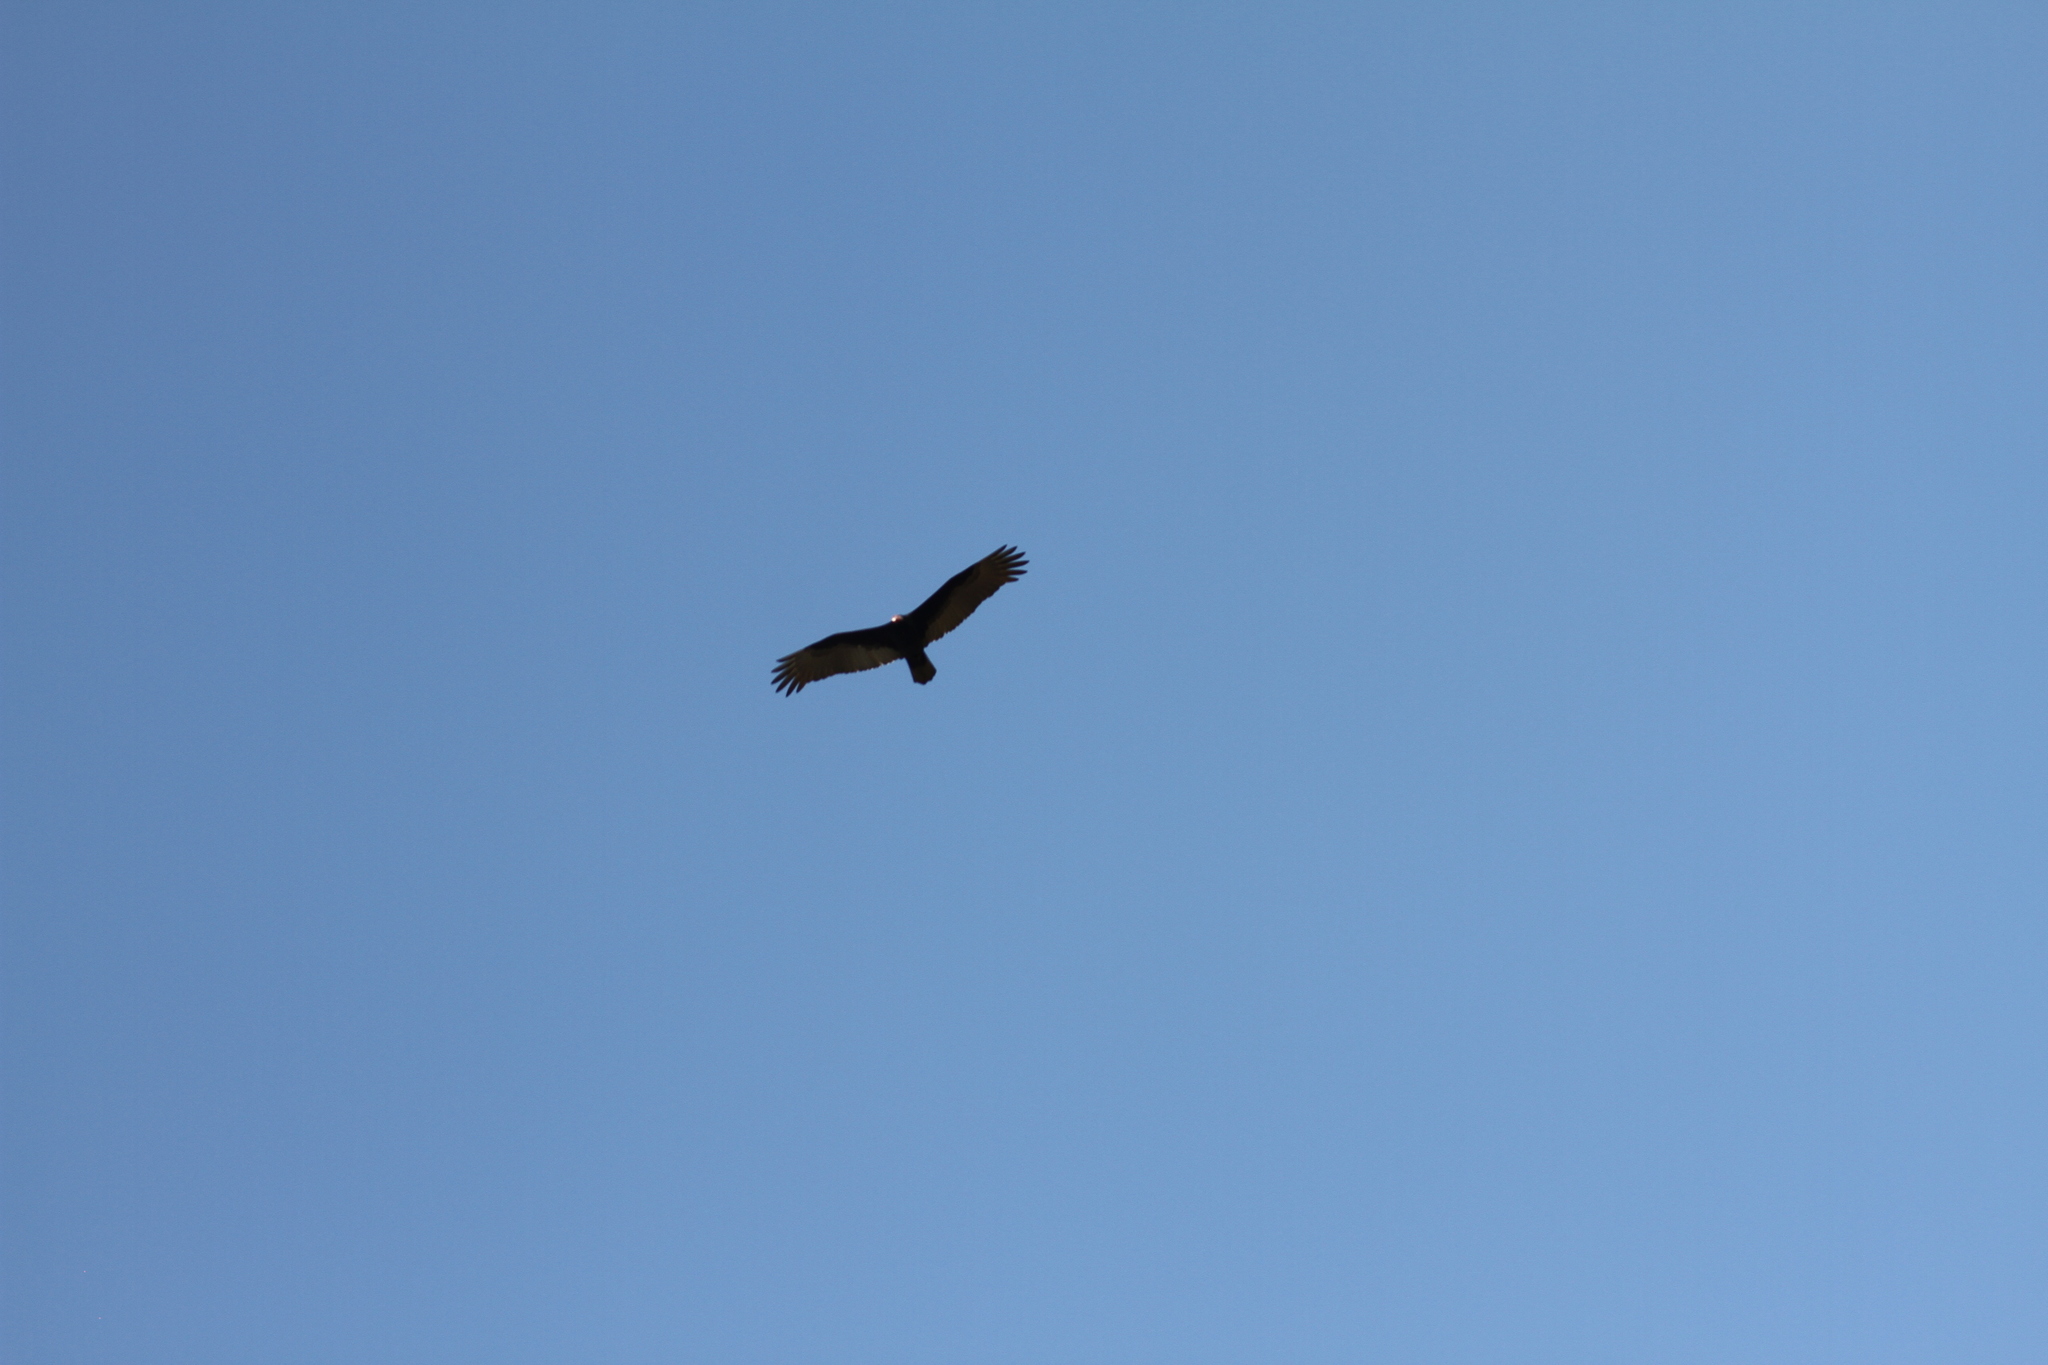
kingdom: Animalia
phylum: Chordata
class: Aves
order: Accipitriformes
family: Cathartidae
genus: Cathartes
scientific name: Cathartes aura
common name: Turkey vulture
